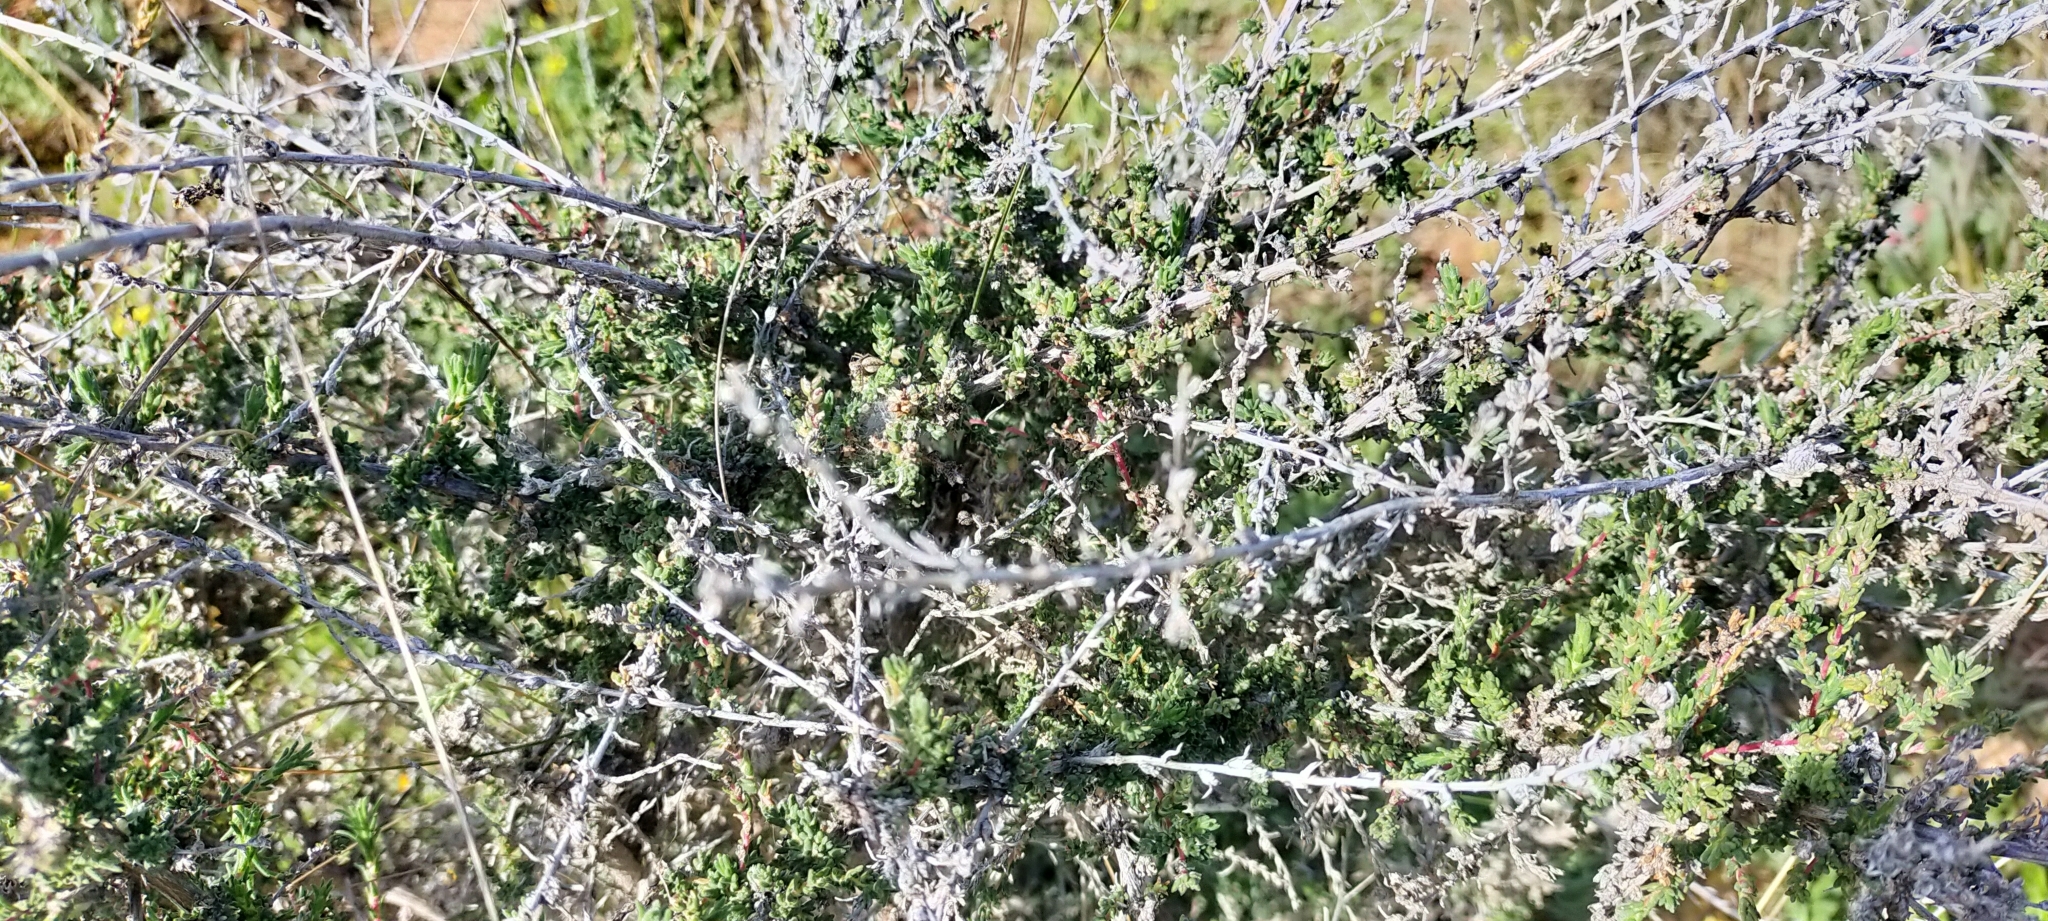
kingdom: Plantae
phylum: Tracheophyta
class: Magnoliopsida
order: Caryophyllales
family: Amaranthaceae
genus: Nitrosalsola
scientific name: Nitrosalsola vermiculata
